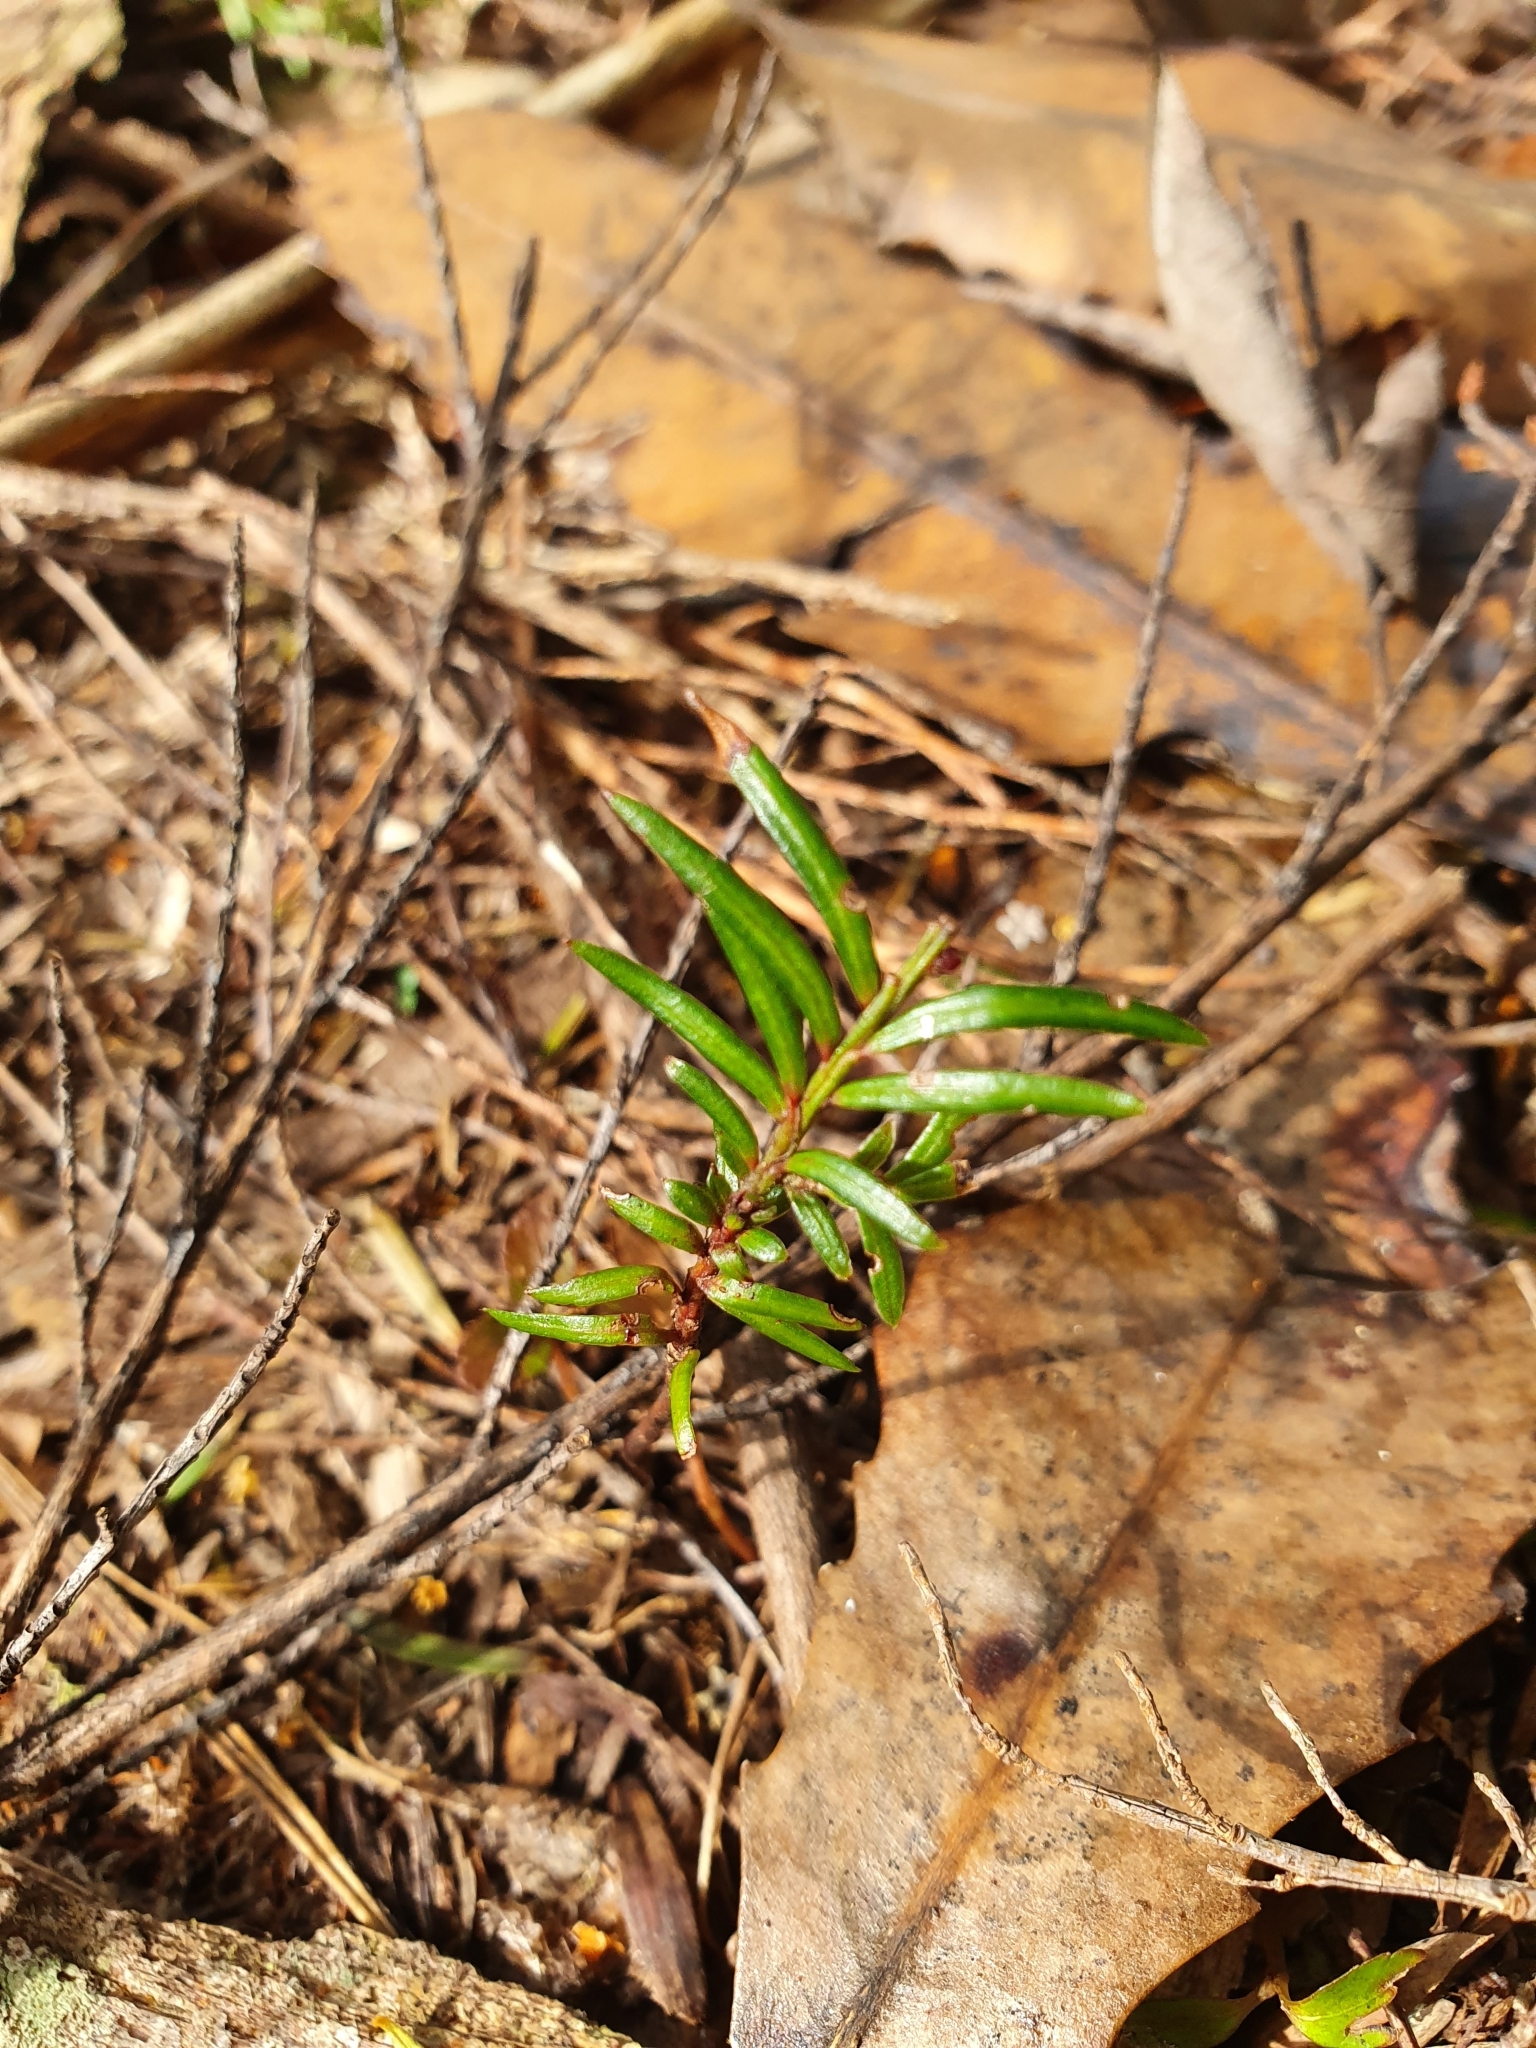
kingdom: Plantae
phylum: Tracheophyta
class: Pinopsida
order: Pinales
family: Podocarpaceae
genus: Prumnopitys
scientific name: Prumnopitys ferruginea
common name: Brown pine
